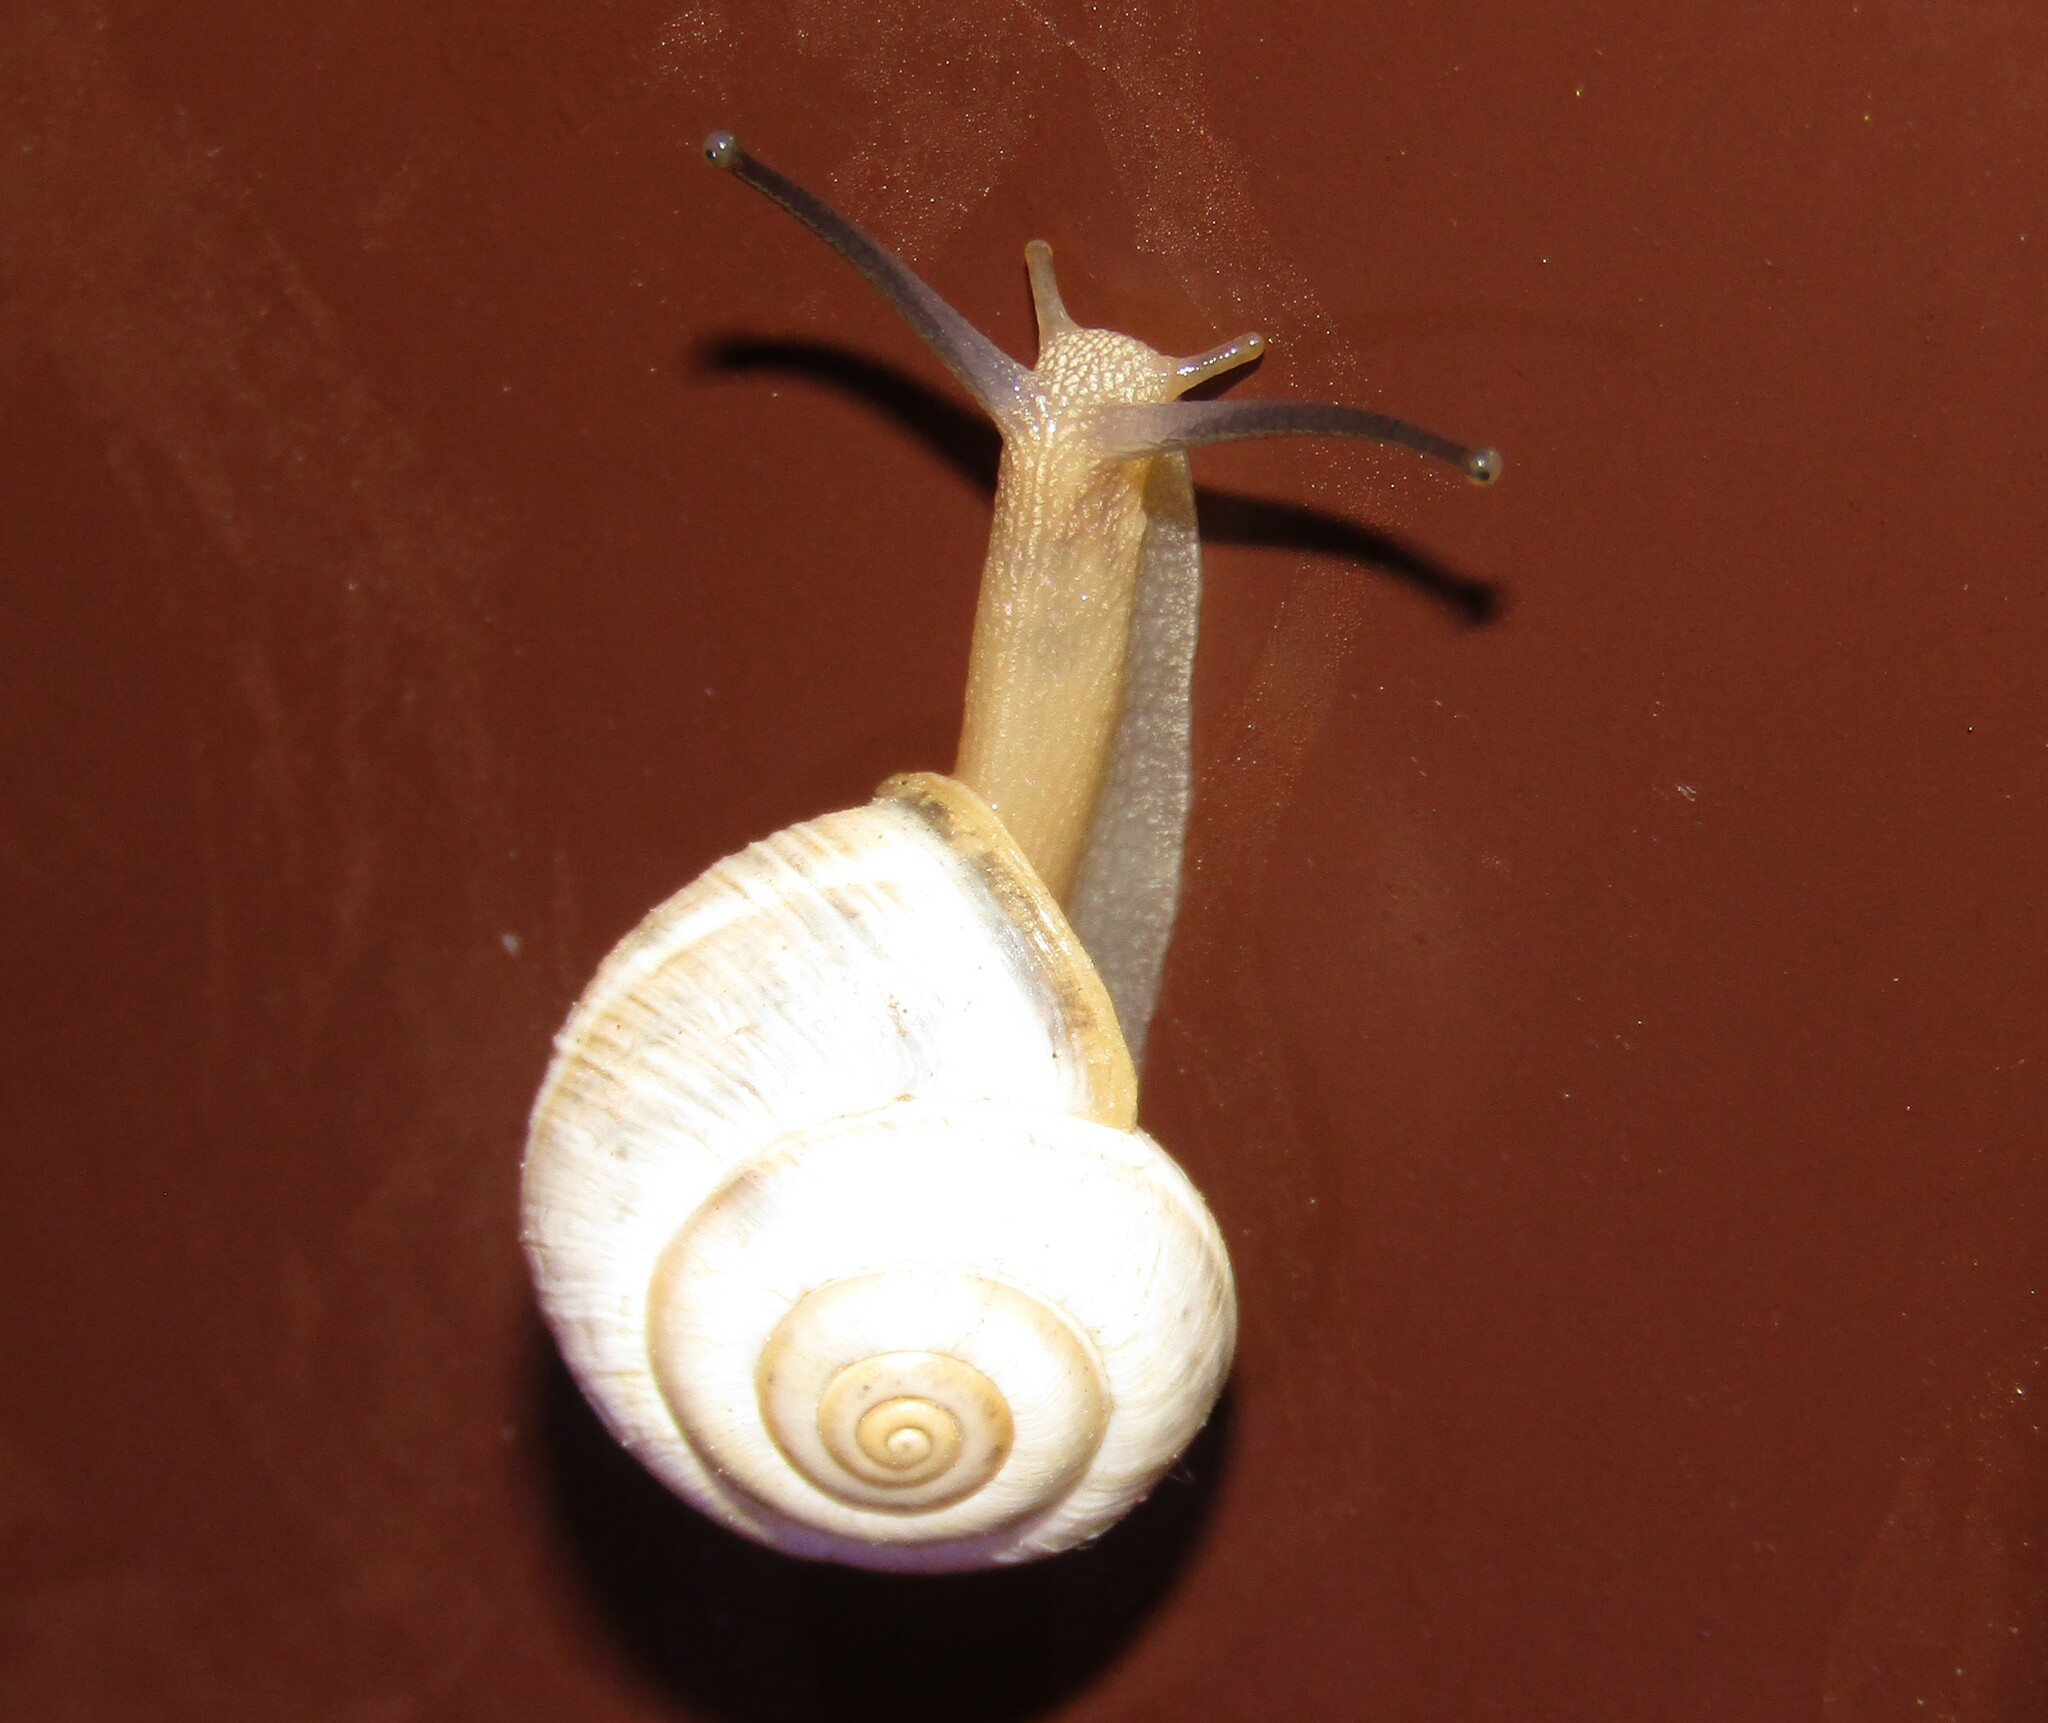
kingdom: Animalia
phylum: Mollusca
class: Gastropoda
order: Stylommatophora
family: Hygromiidae
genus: Harmozica
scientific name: Harmozica ravergiensis
